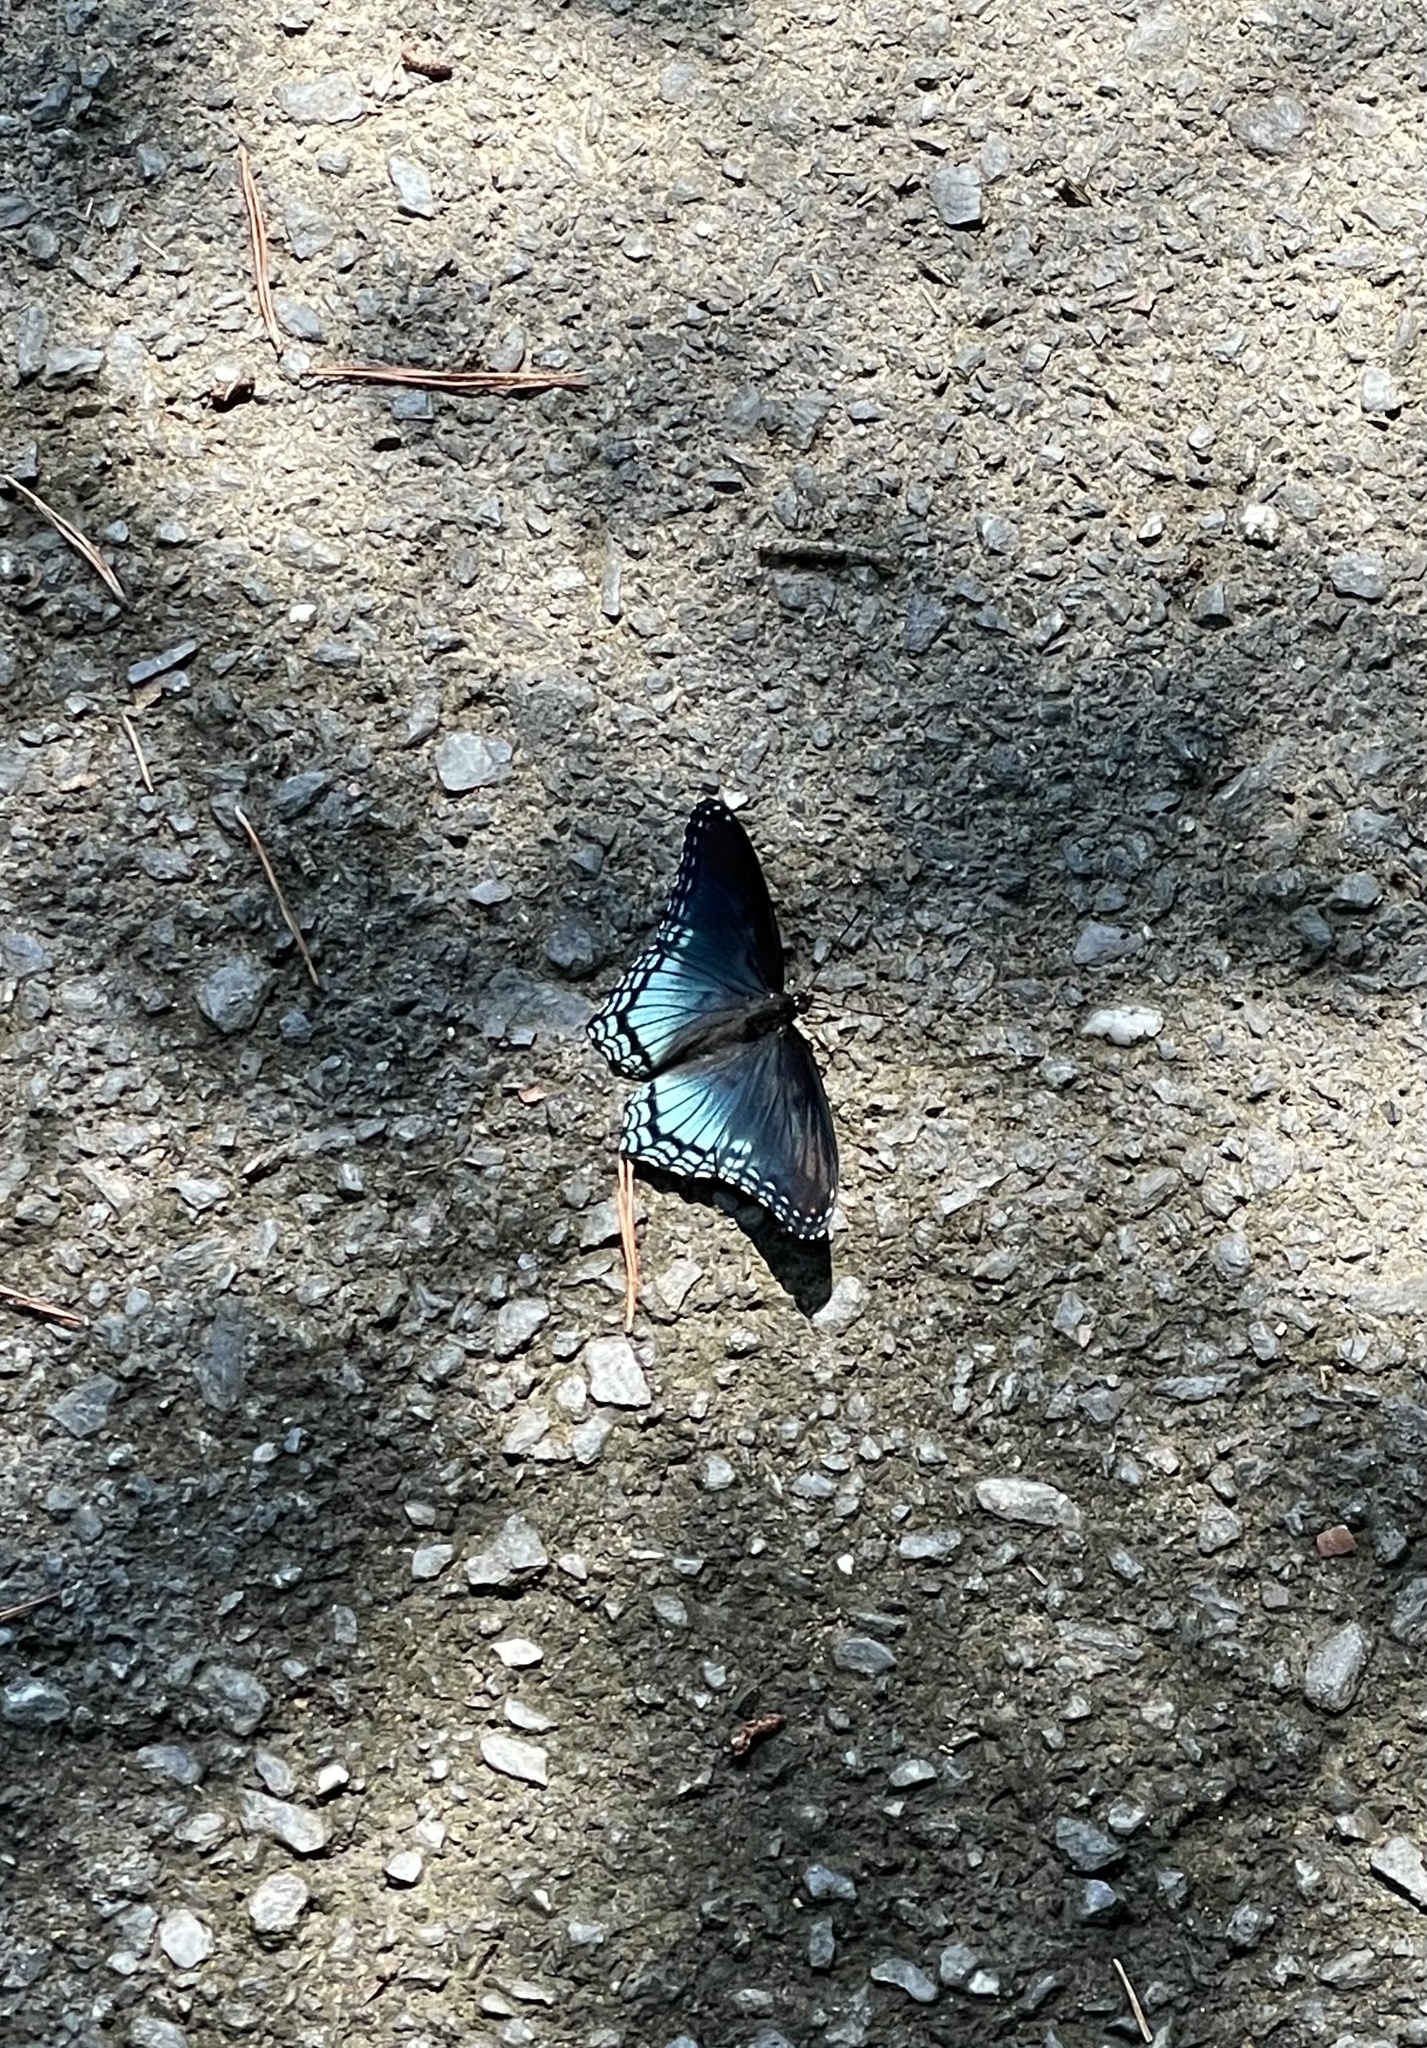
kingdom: Animalia
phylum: Arthropoda
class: Insecta
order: Lepidoptera
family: Nymphalidae
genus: Limenitis
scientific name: Limenitis astyanax
